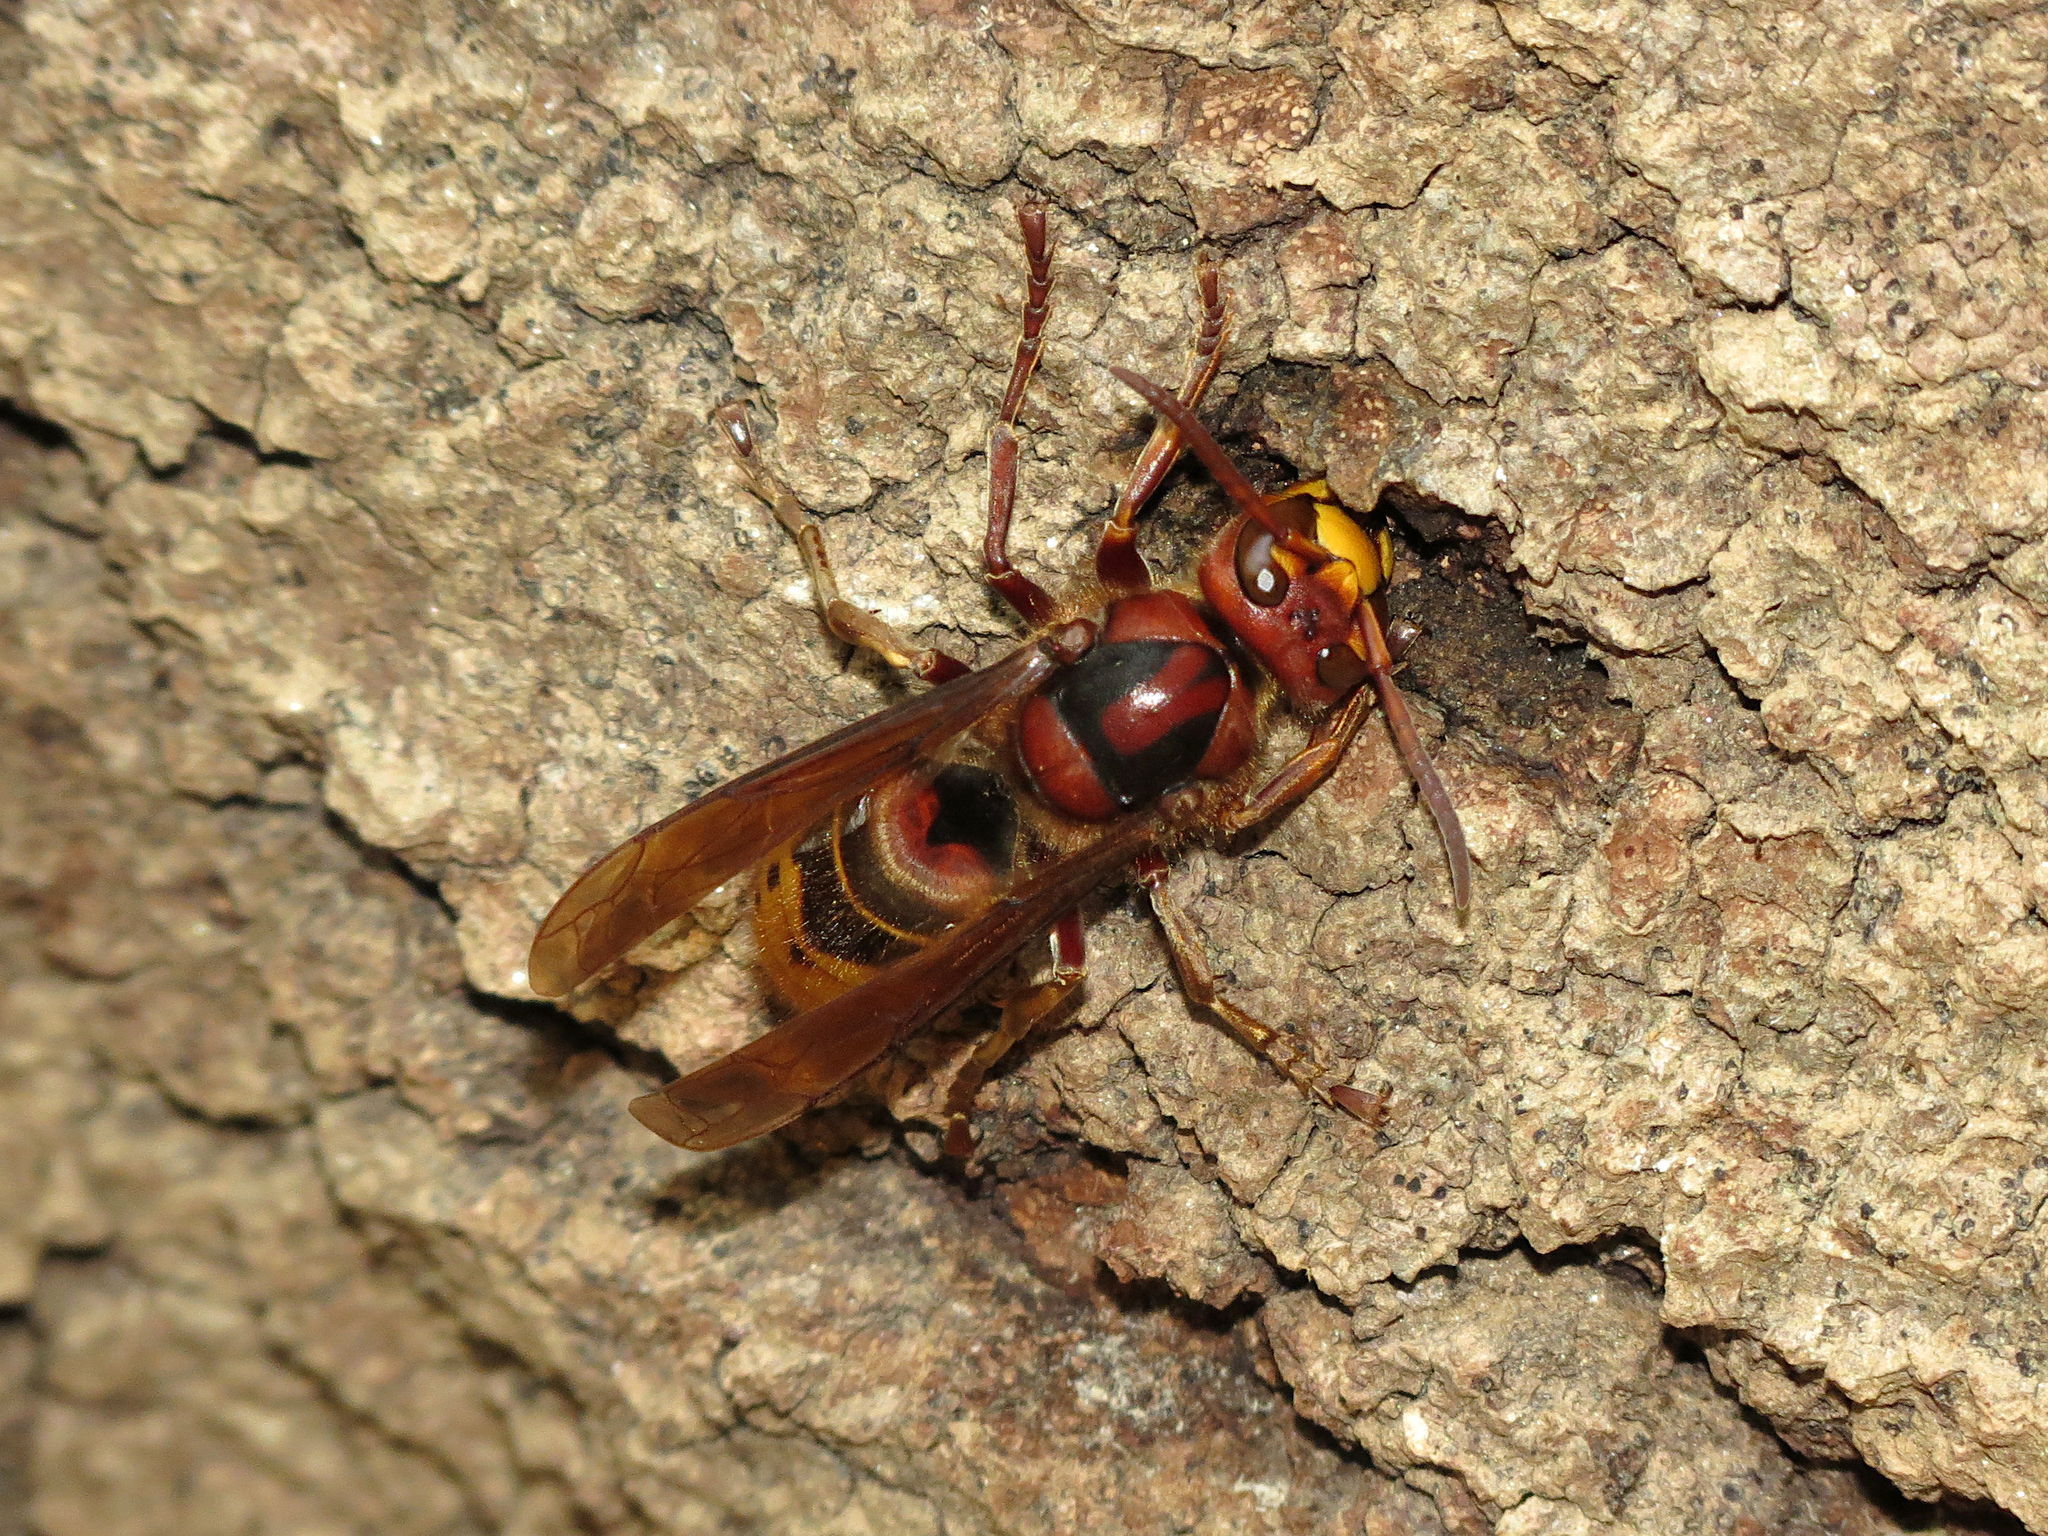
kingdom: Animalia
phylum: Arthropoda
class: Insecta
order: Hymenoptera
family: Vespidae
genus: Vespa
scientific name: Vespa crabro
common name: Hornet
